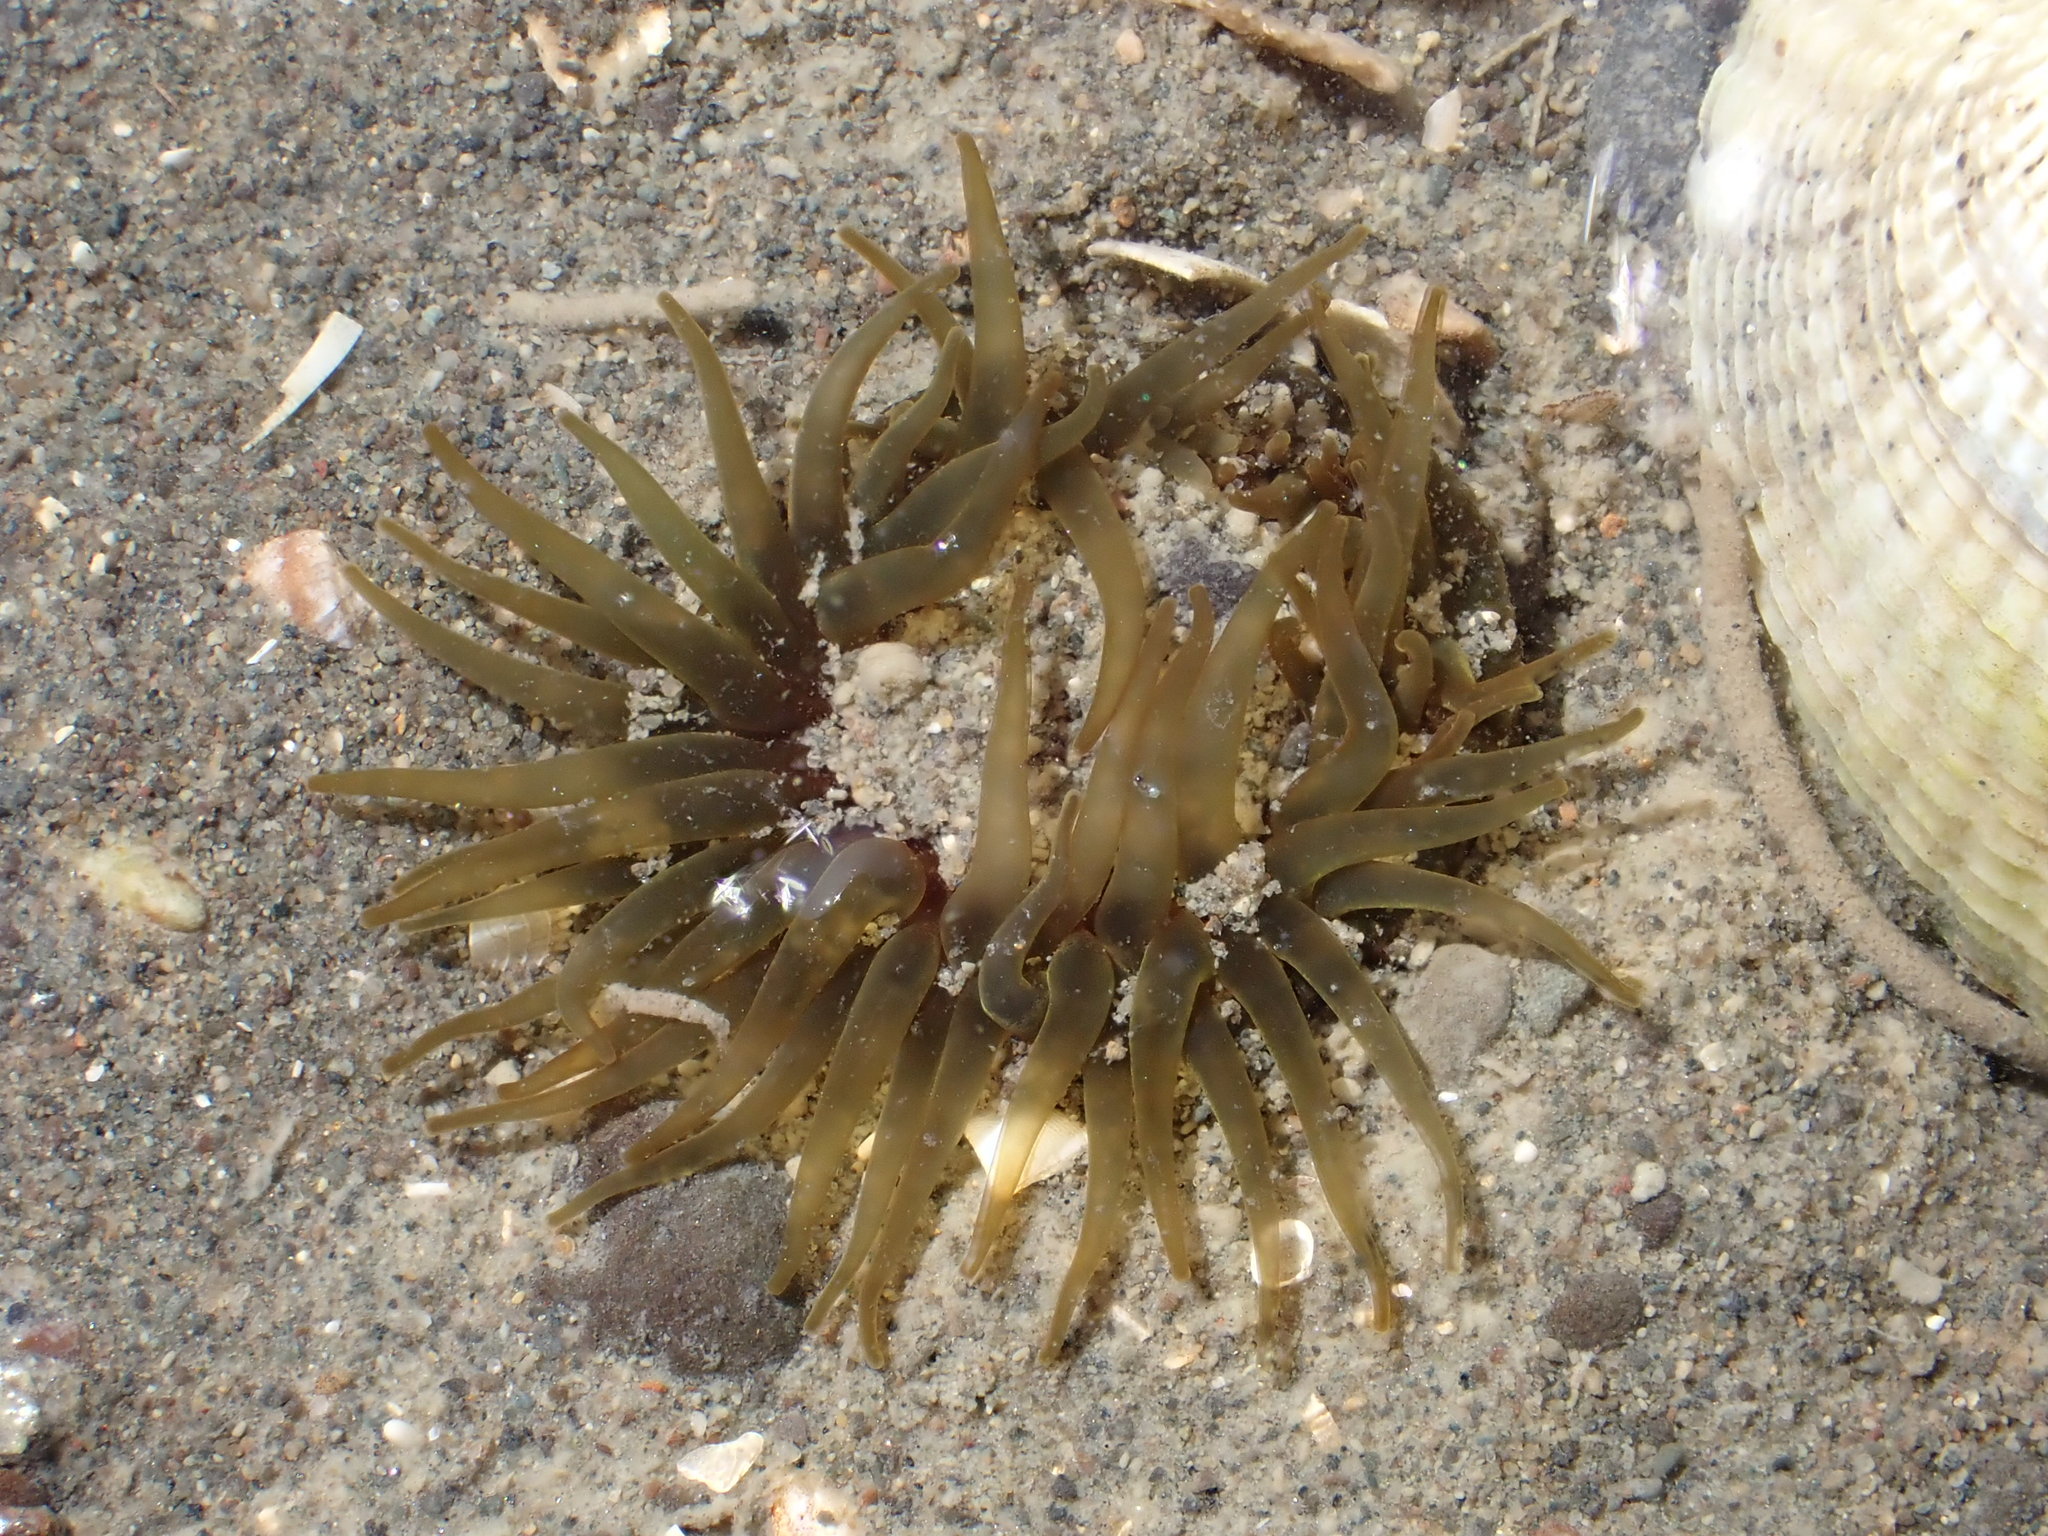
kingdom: Animalia
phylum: Cnidaria
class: Anthozoa
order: Actiniaria
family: Actiniidae
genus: Isactinia
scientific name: Isactinia olivacea
